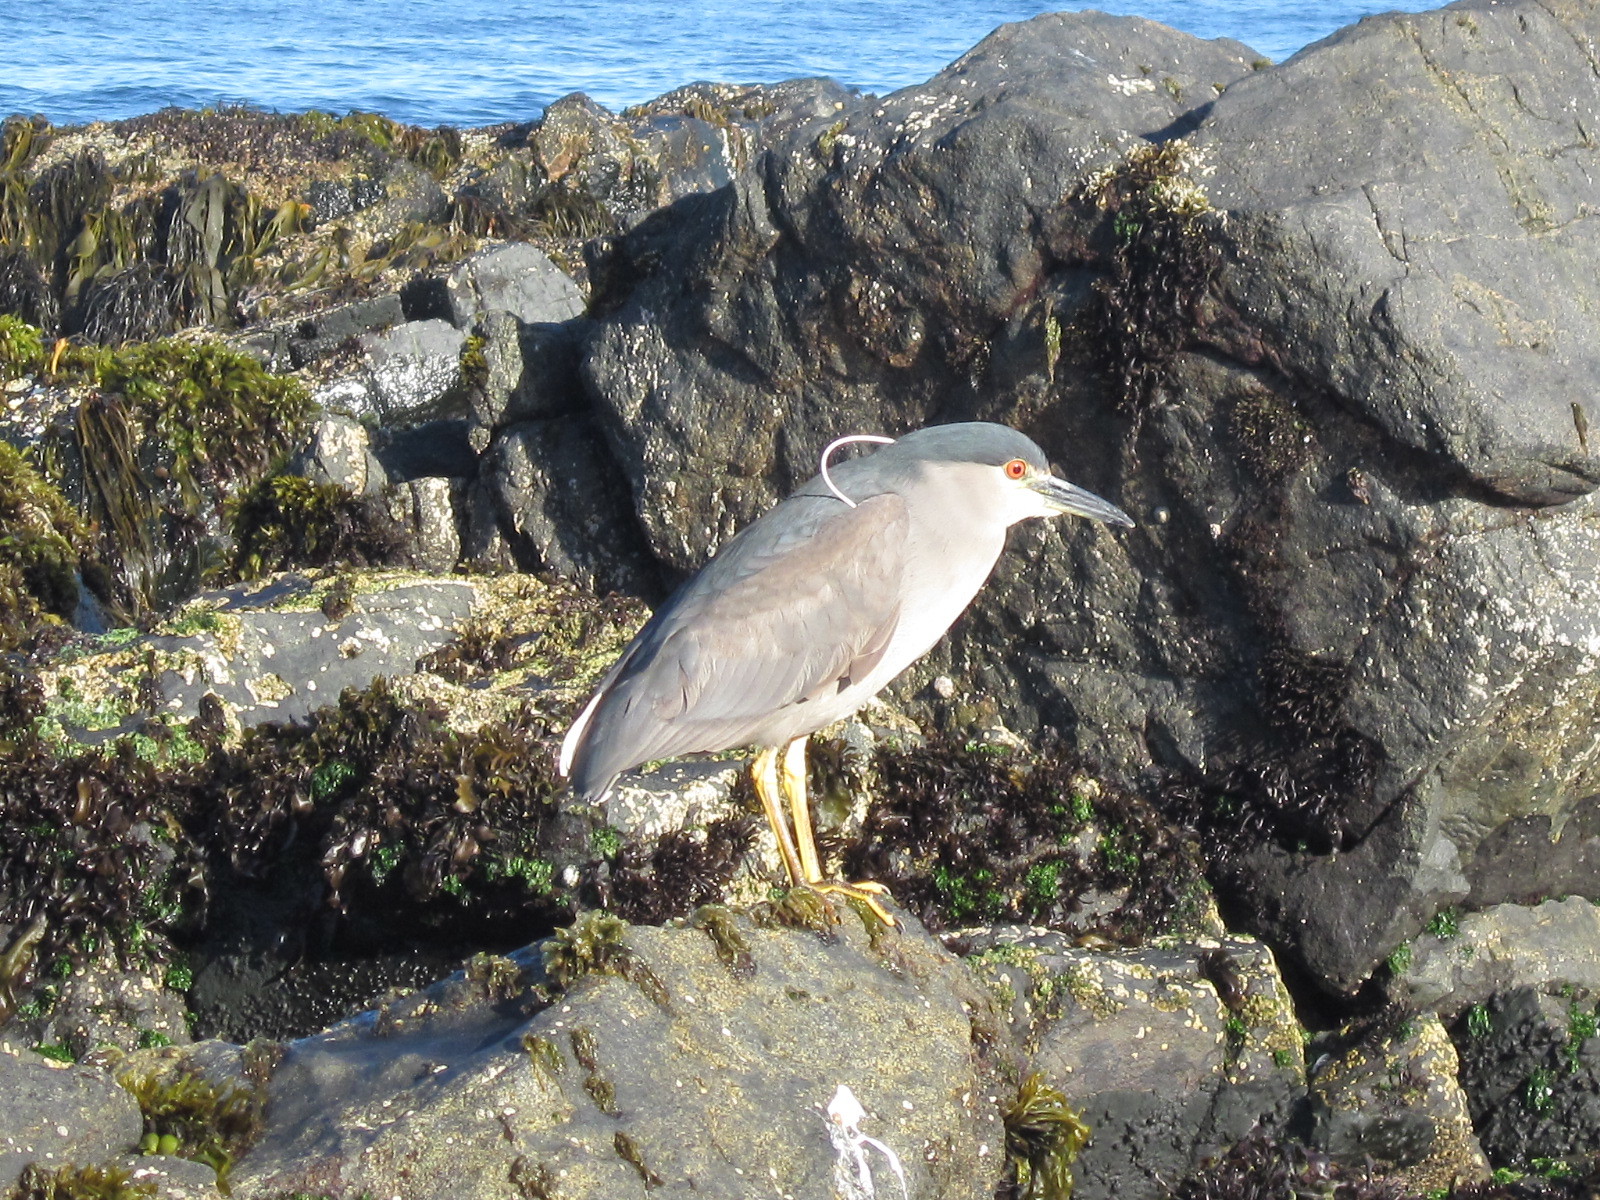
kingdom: Animalia
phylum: Chordata
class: Aves
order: Pelecaniformes
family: Ardeidae
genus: Nycticorax
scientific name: Nycticorax nycticorax
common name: Black-crowned night heron
